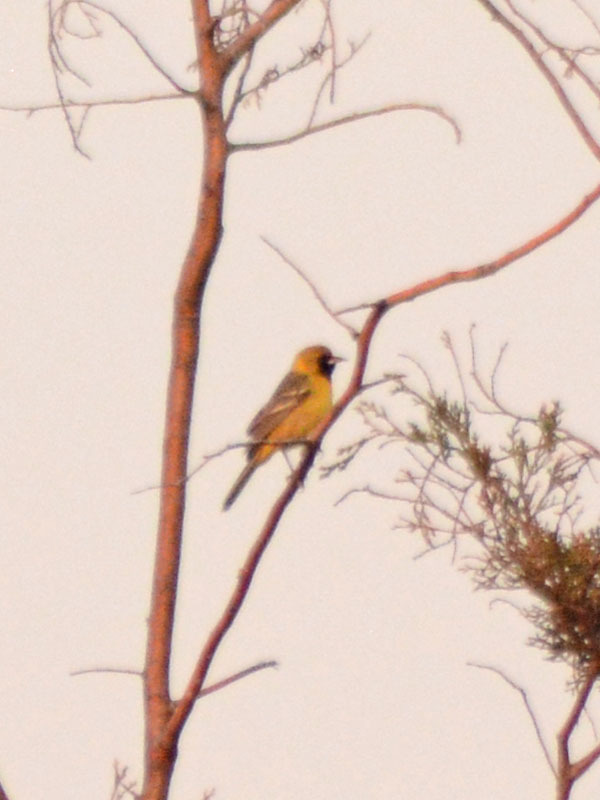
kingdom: Animalia
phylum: Chordata
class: Aves
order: Passeriformes
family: Icteridae
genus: Icterus
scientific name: Icterus cucullatus
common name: Hooded oriole
